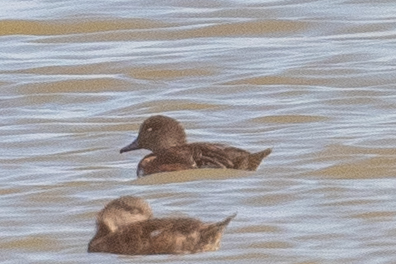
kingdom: Animalia
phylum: Chordata
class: Aves
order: Anseriformes
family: Anatidae
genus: Mareca
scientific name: Mareca americana
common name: American wigeon
